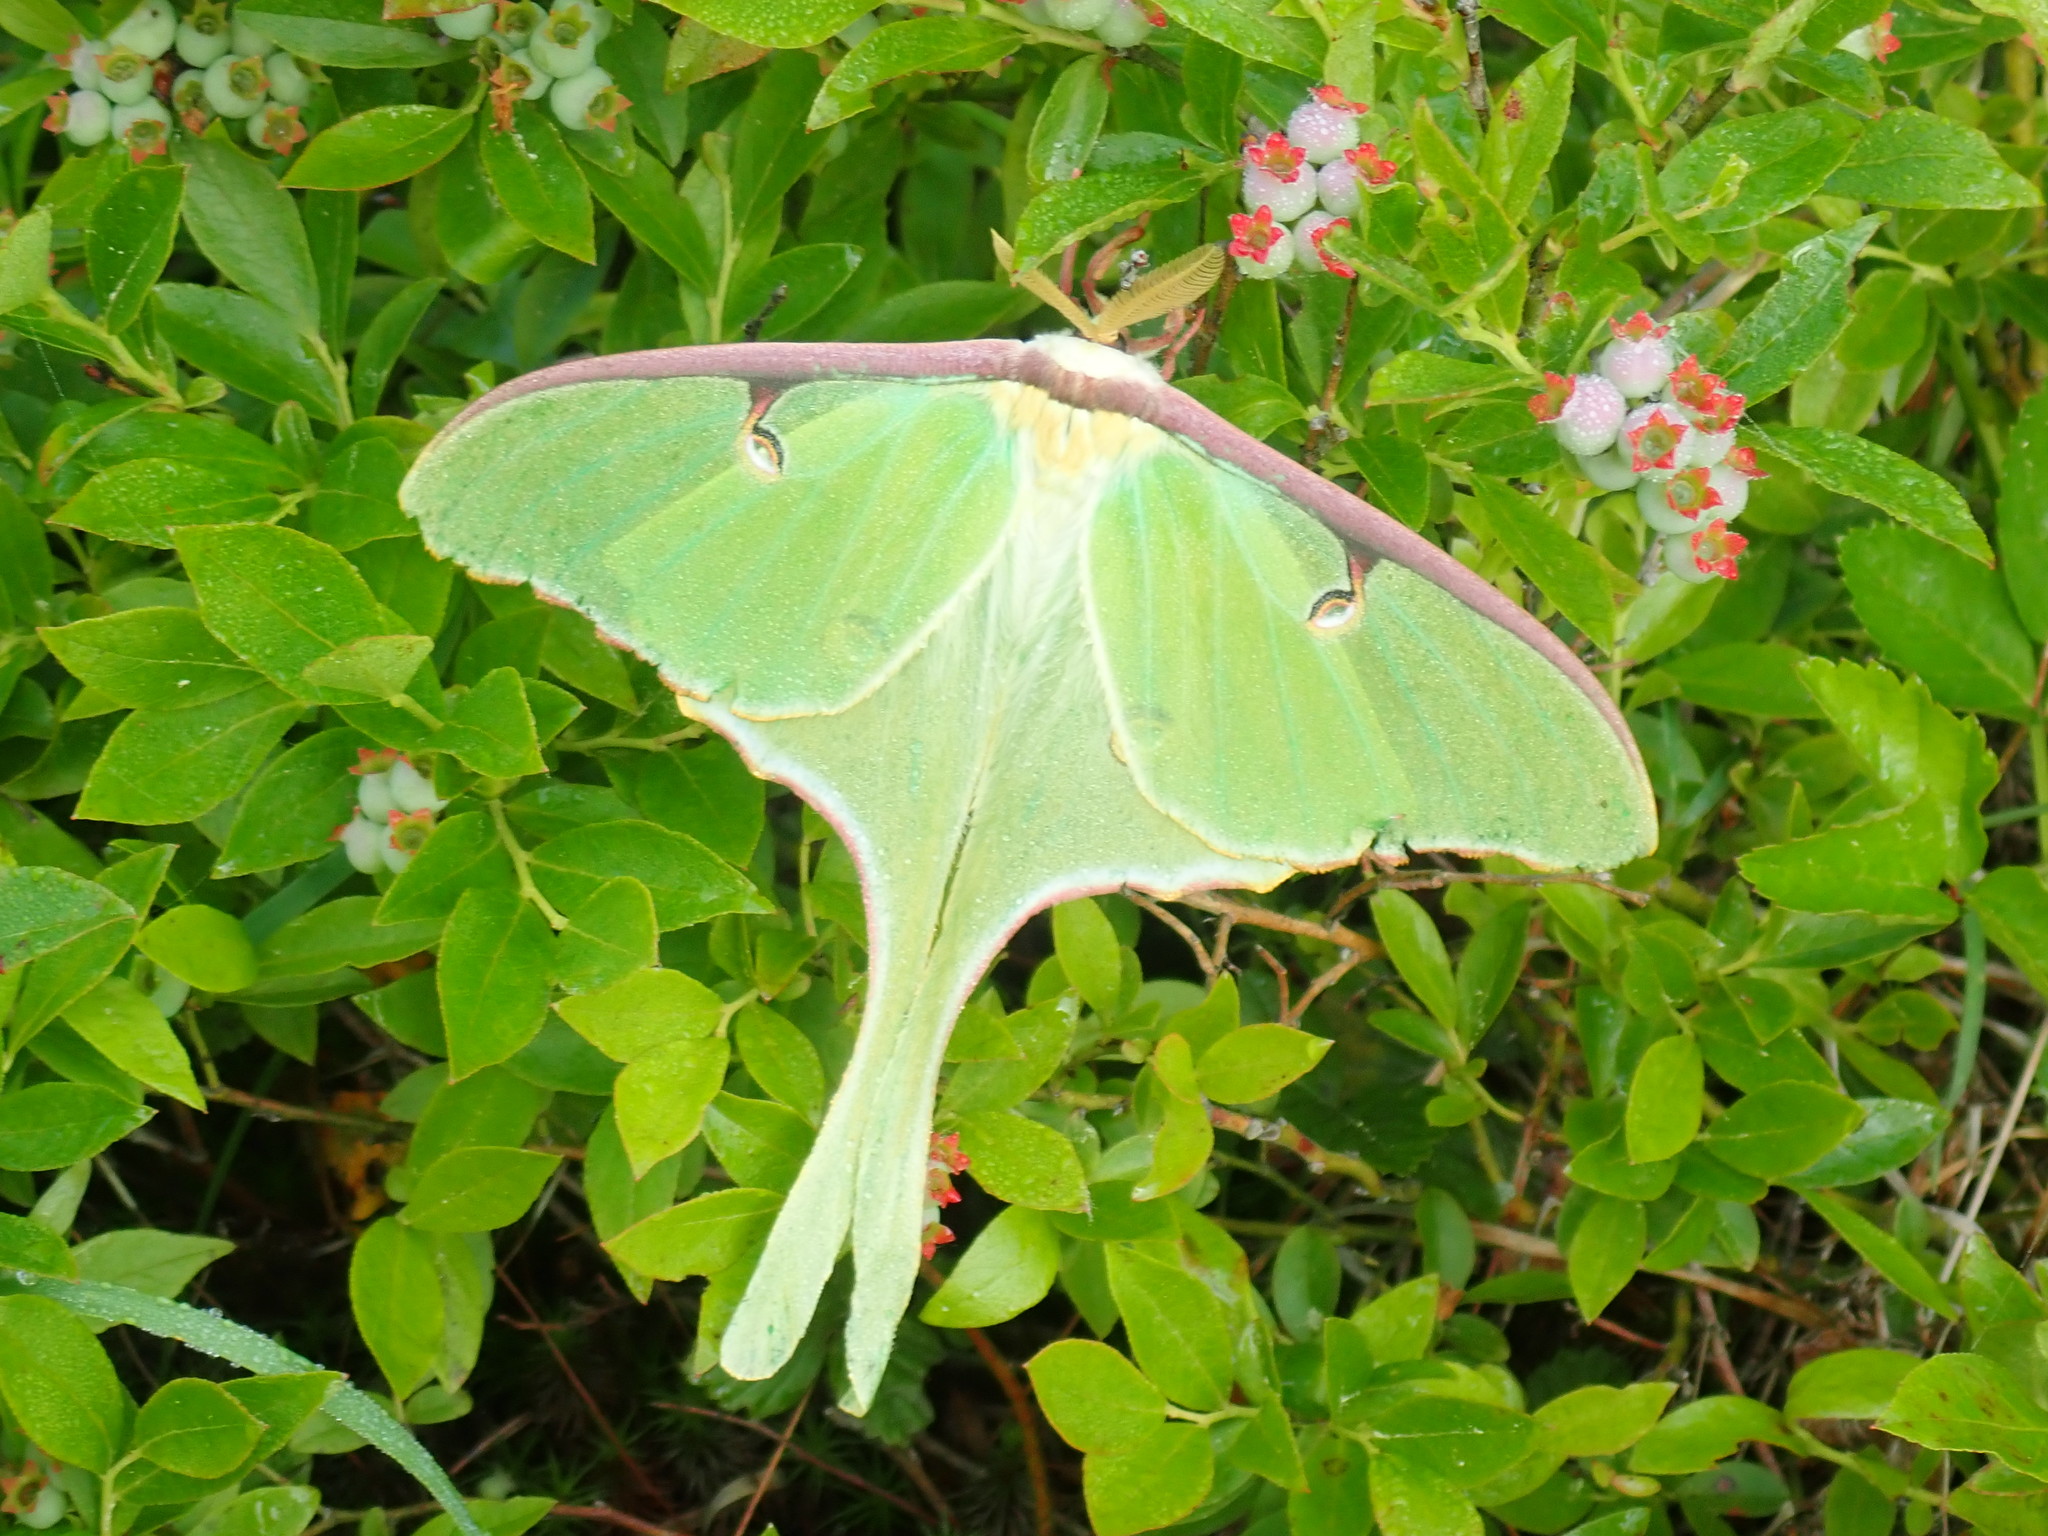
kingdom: Animalia
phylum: Arthropoda
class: Insecta
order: Lepidoptera
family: Saturniidae
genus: Actias
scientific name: Actias luna
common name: Luna moth
